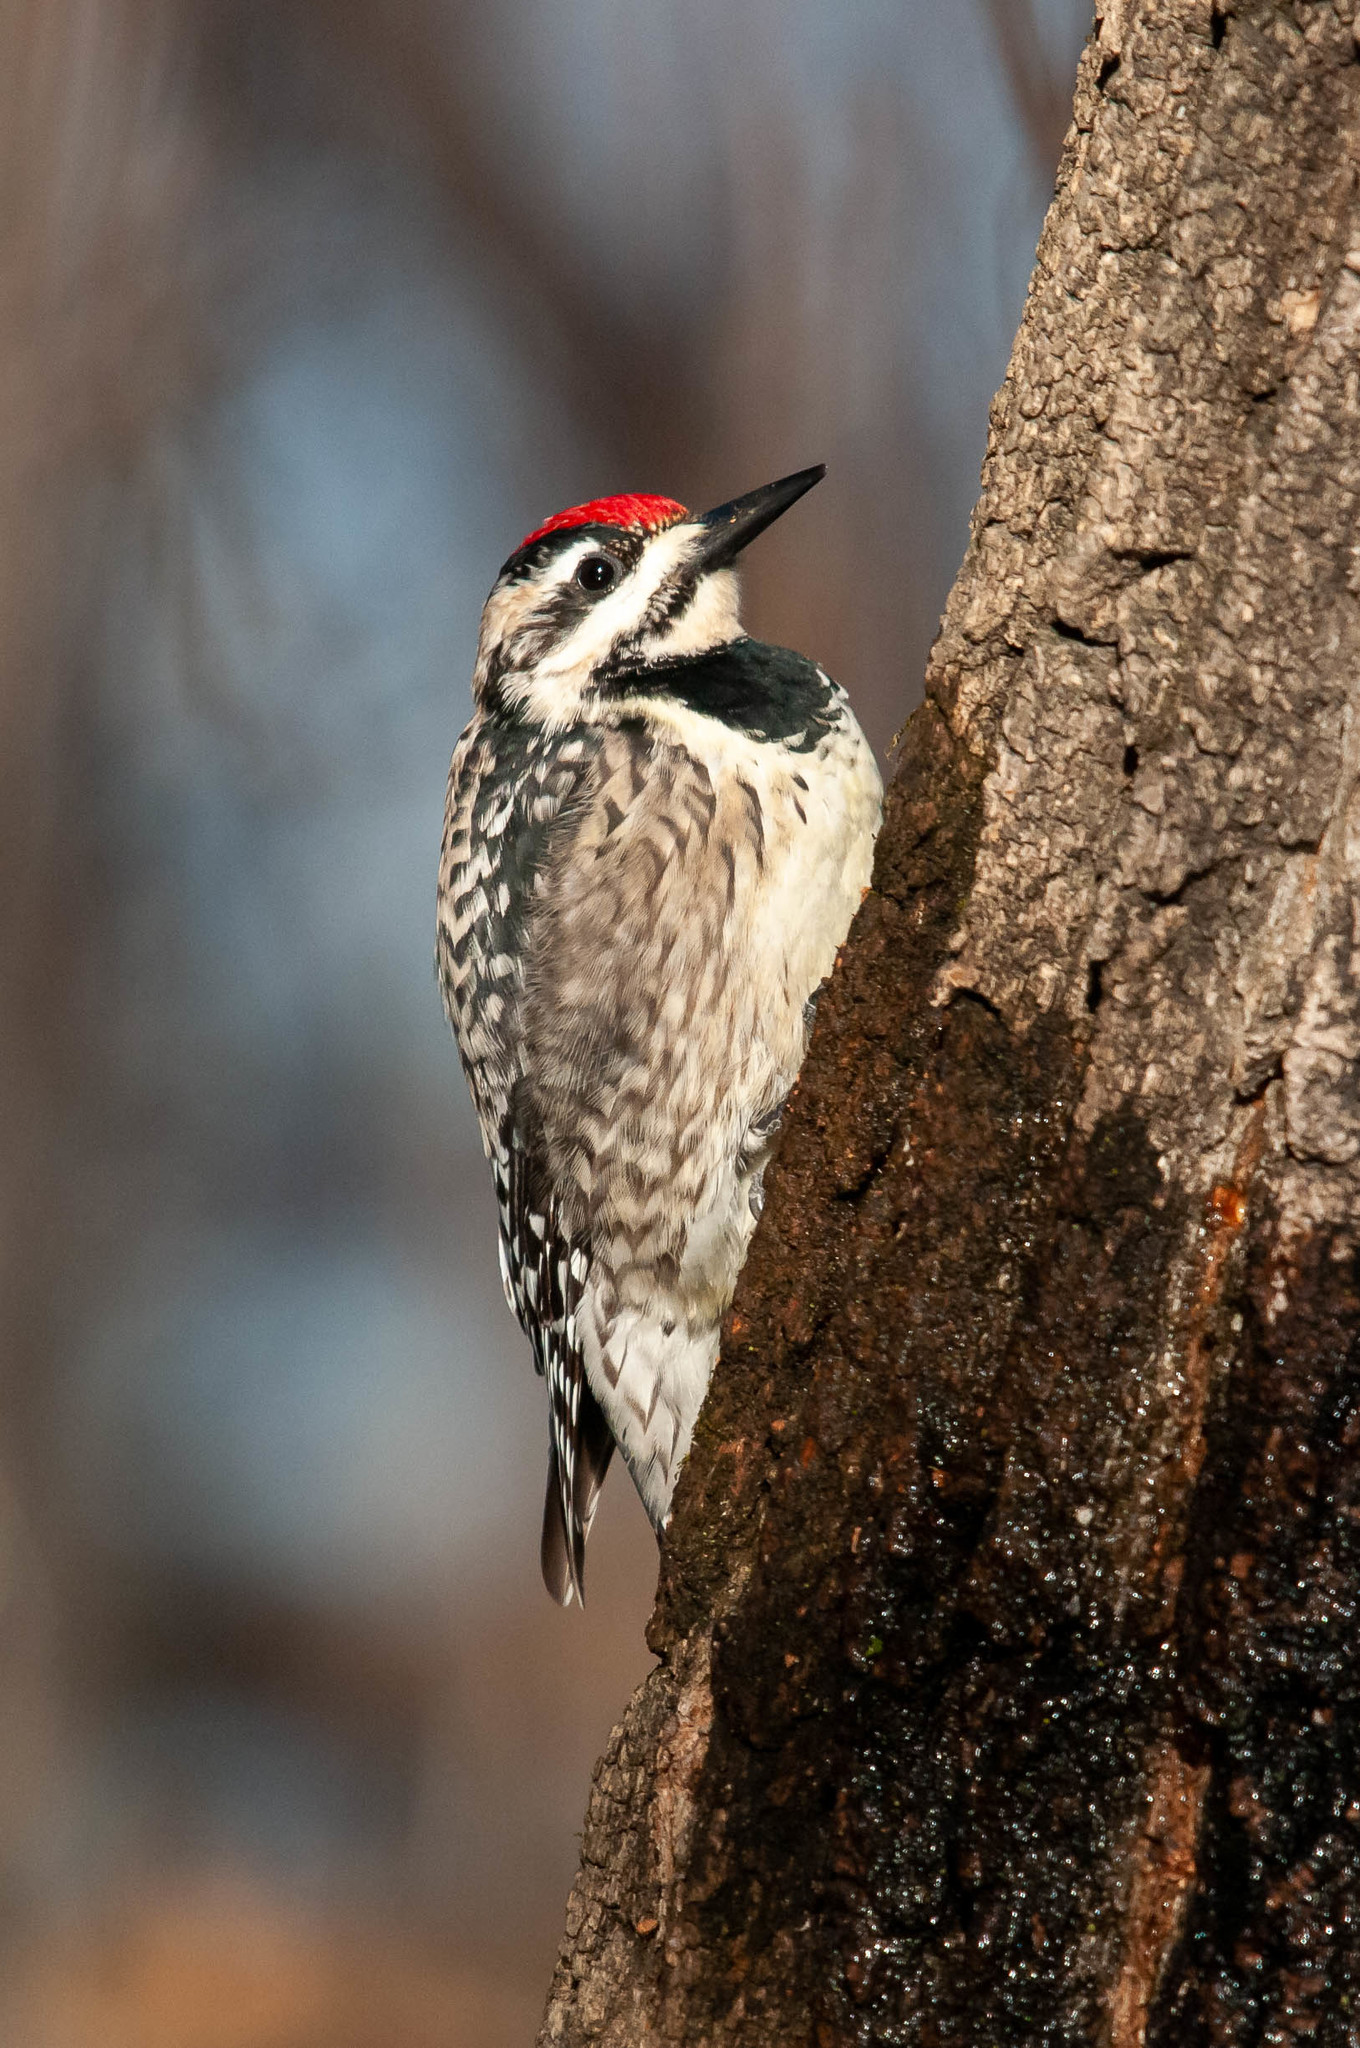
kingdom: Animalia
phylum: Chordata
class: Aves
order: Piciformes
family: Picidae
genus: Sphyrapicus
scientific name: Sphyrapicus varius
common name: Yellow-bellied sapsucker
